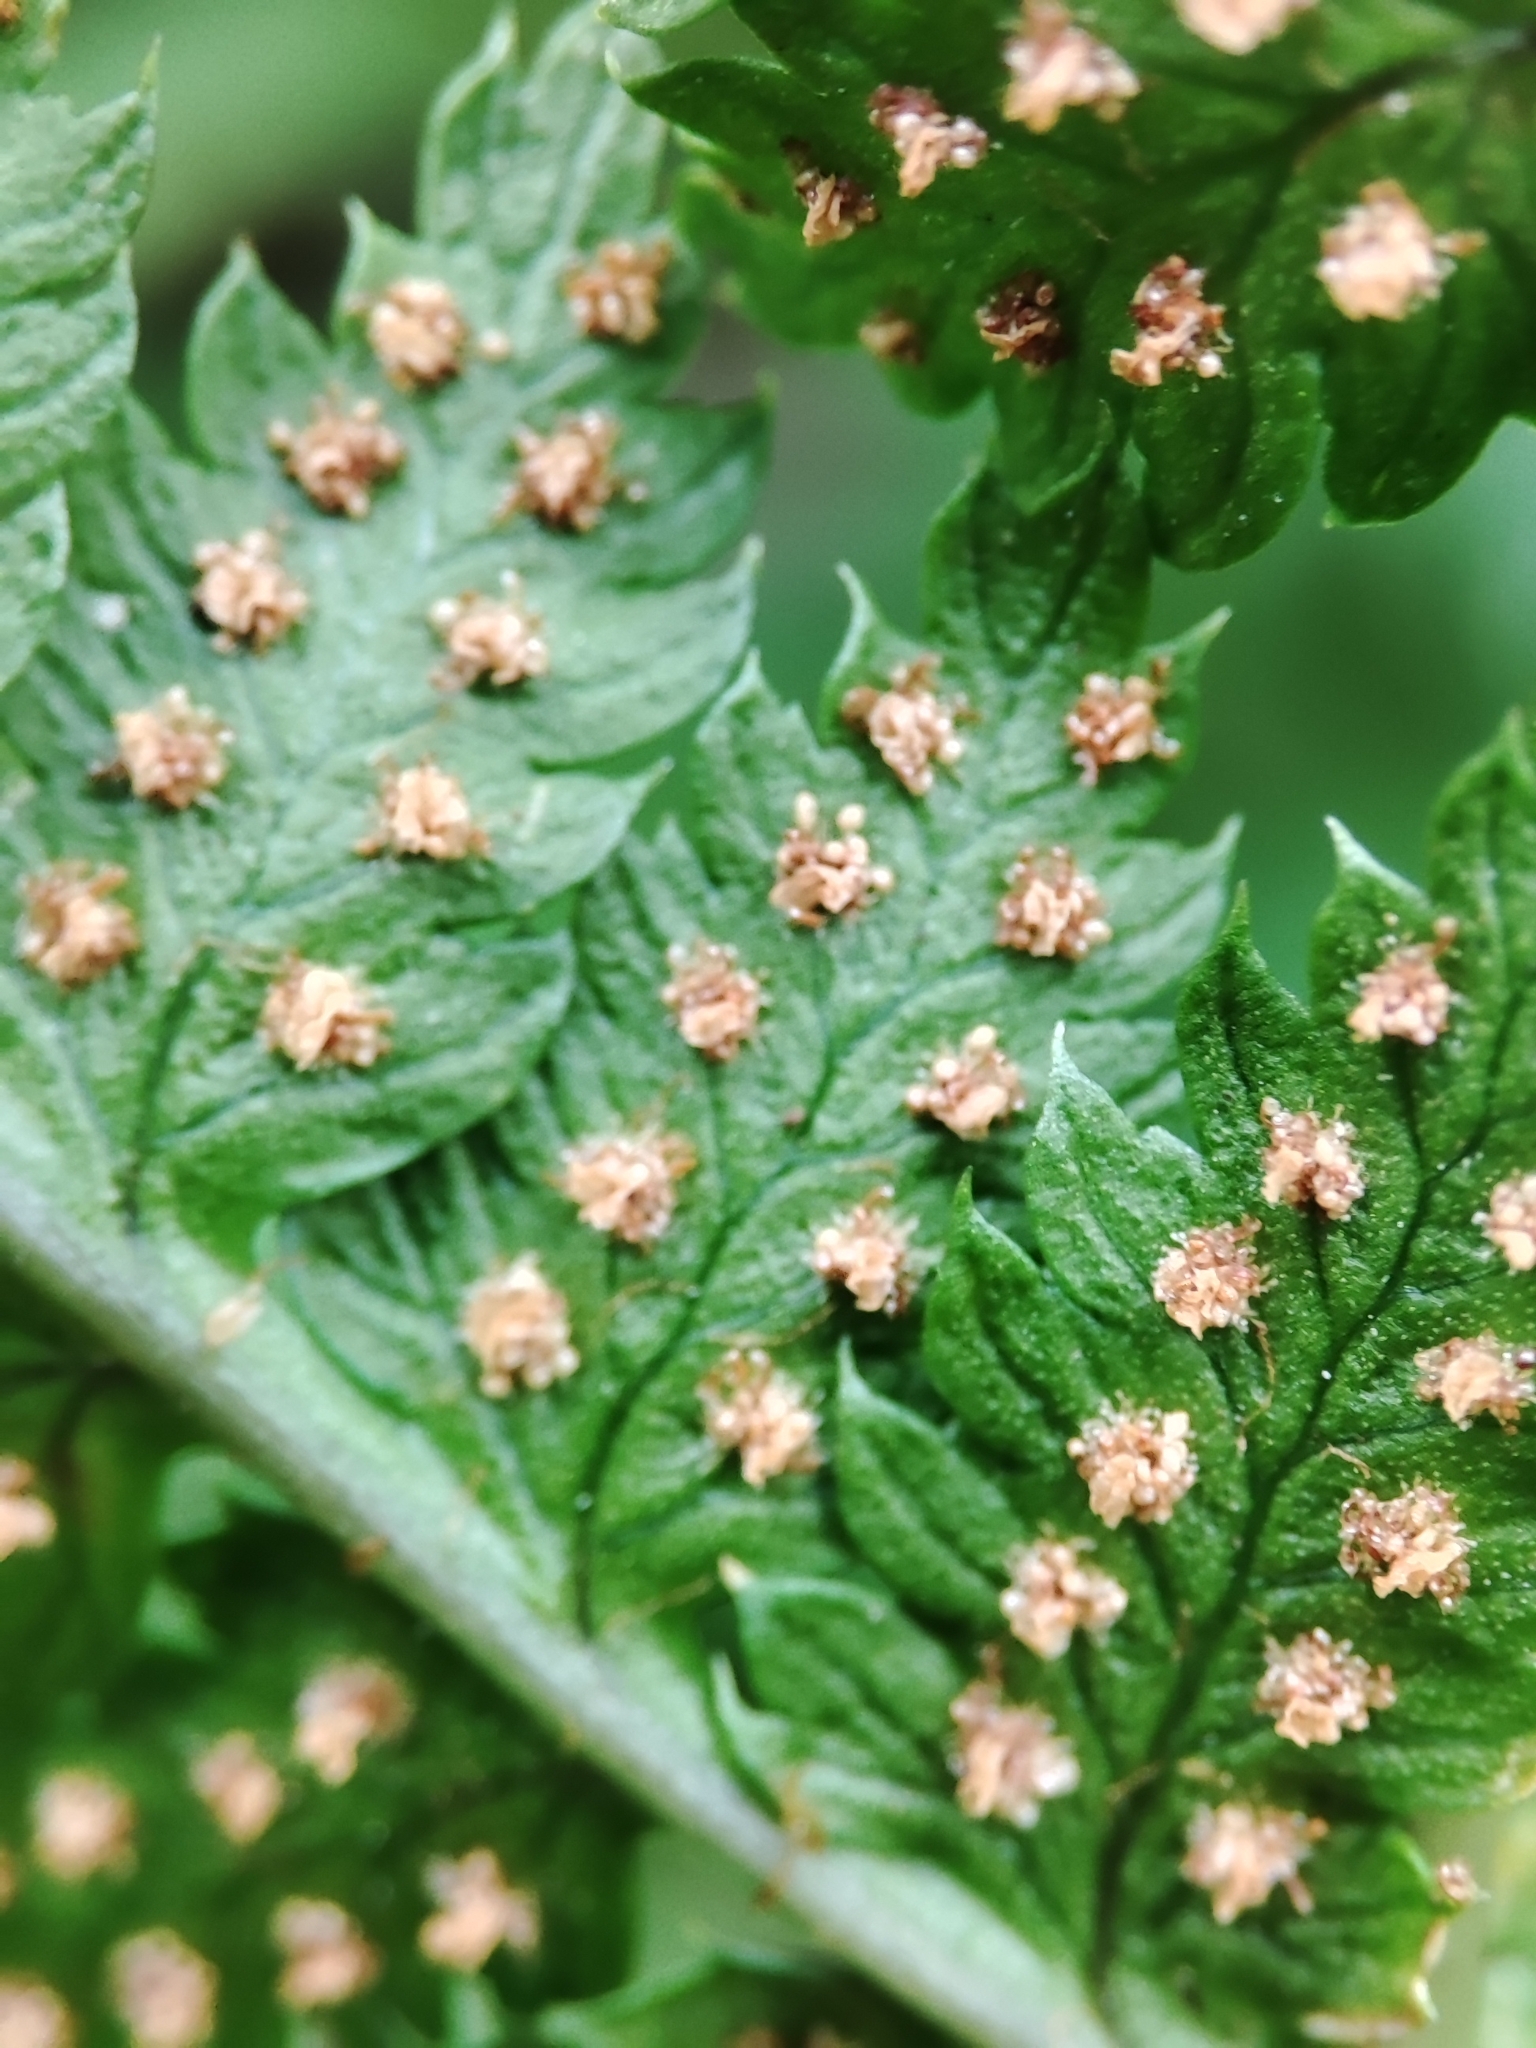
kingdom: Plantae
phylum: Tracheophyta
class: Polypodiopsida
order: Polypodiales
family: Dryopteridaceae
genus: Dryopteris
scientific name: Dryopteris carthusiana
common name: Narrow buckler-fern
